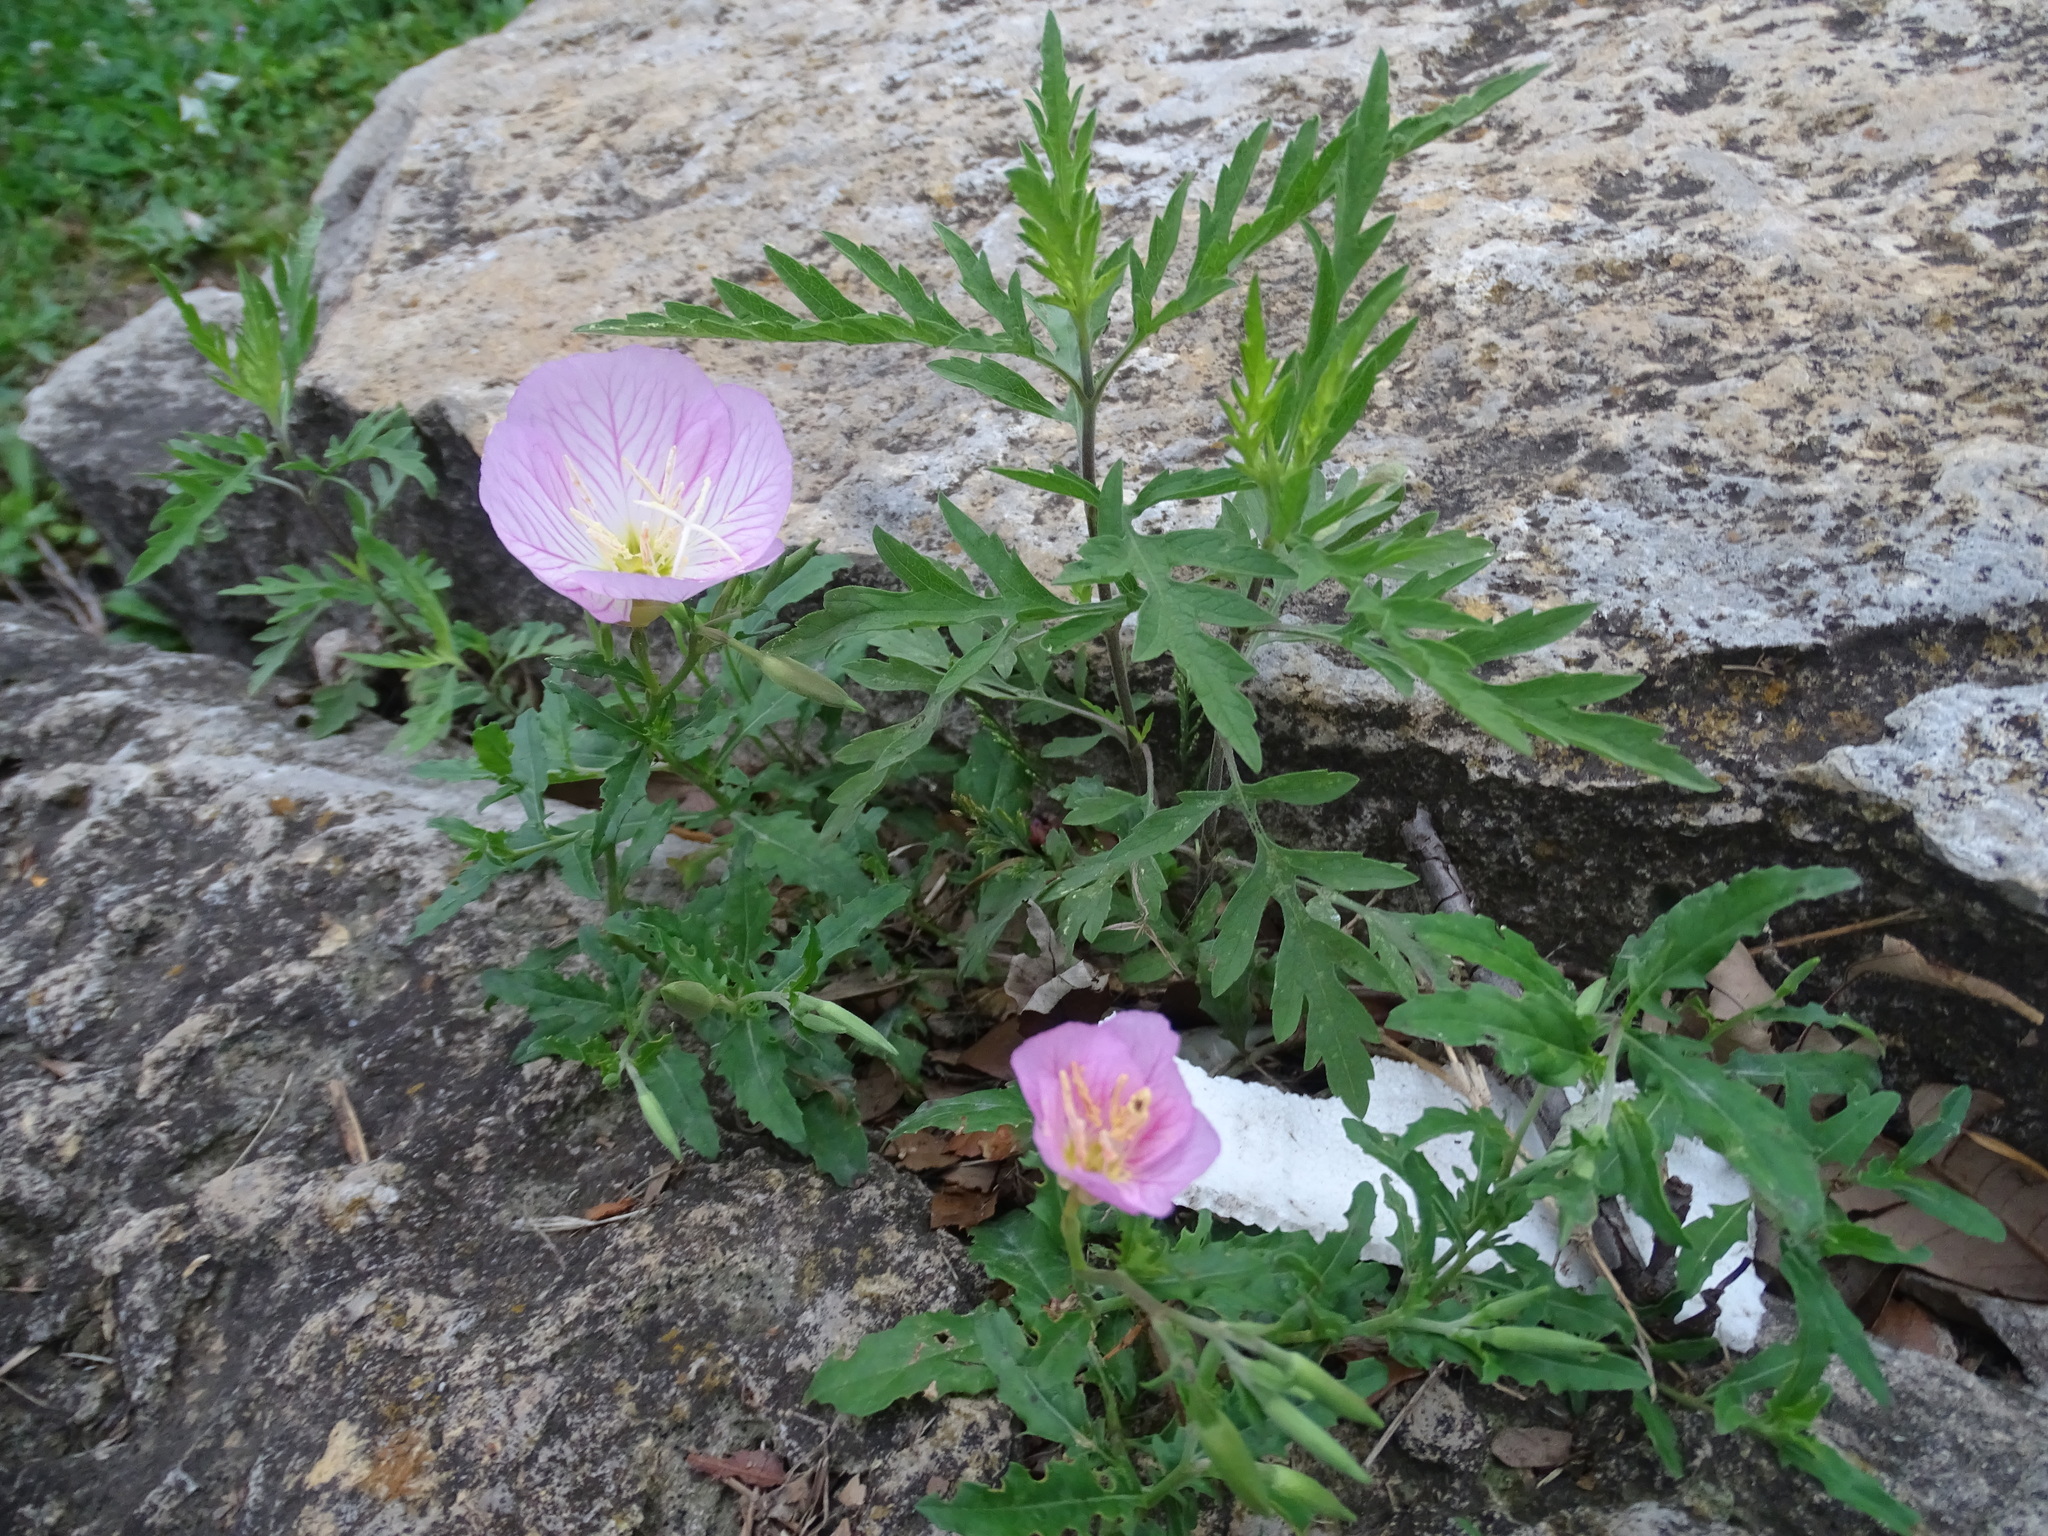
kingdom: Plantae
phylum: Tracheophyta
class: Magnoliopsida
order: Myrtales
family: Onagraceae
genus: Oenothera
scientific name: Oenothera speciosa
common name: White evening-primrose
